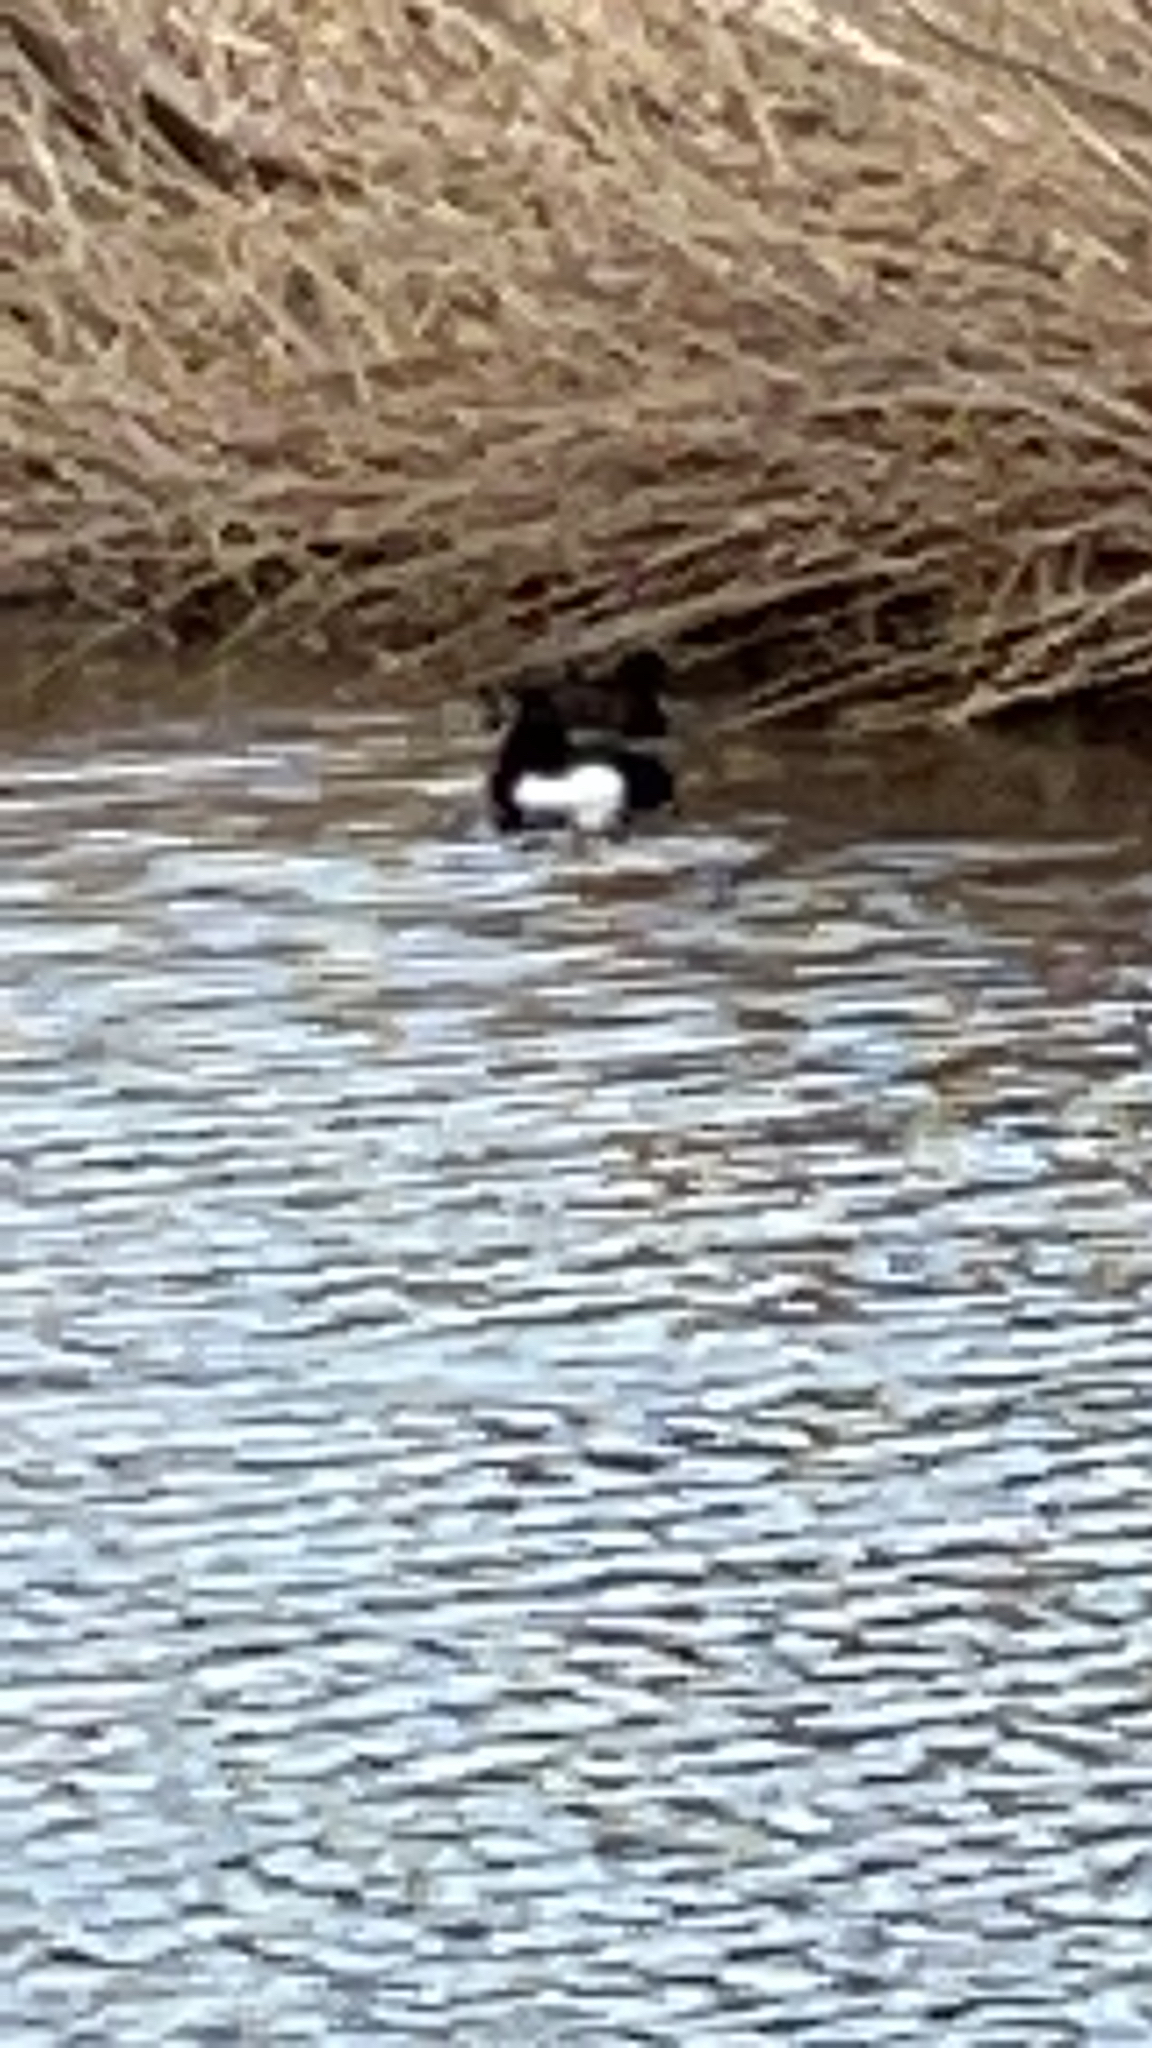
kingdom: Animalia
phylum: Chordata
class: Aves
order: Anseriformes
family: Anatidae
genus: Aythya
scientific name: Aythya fuligula
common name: Tufted duck
